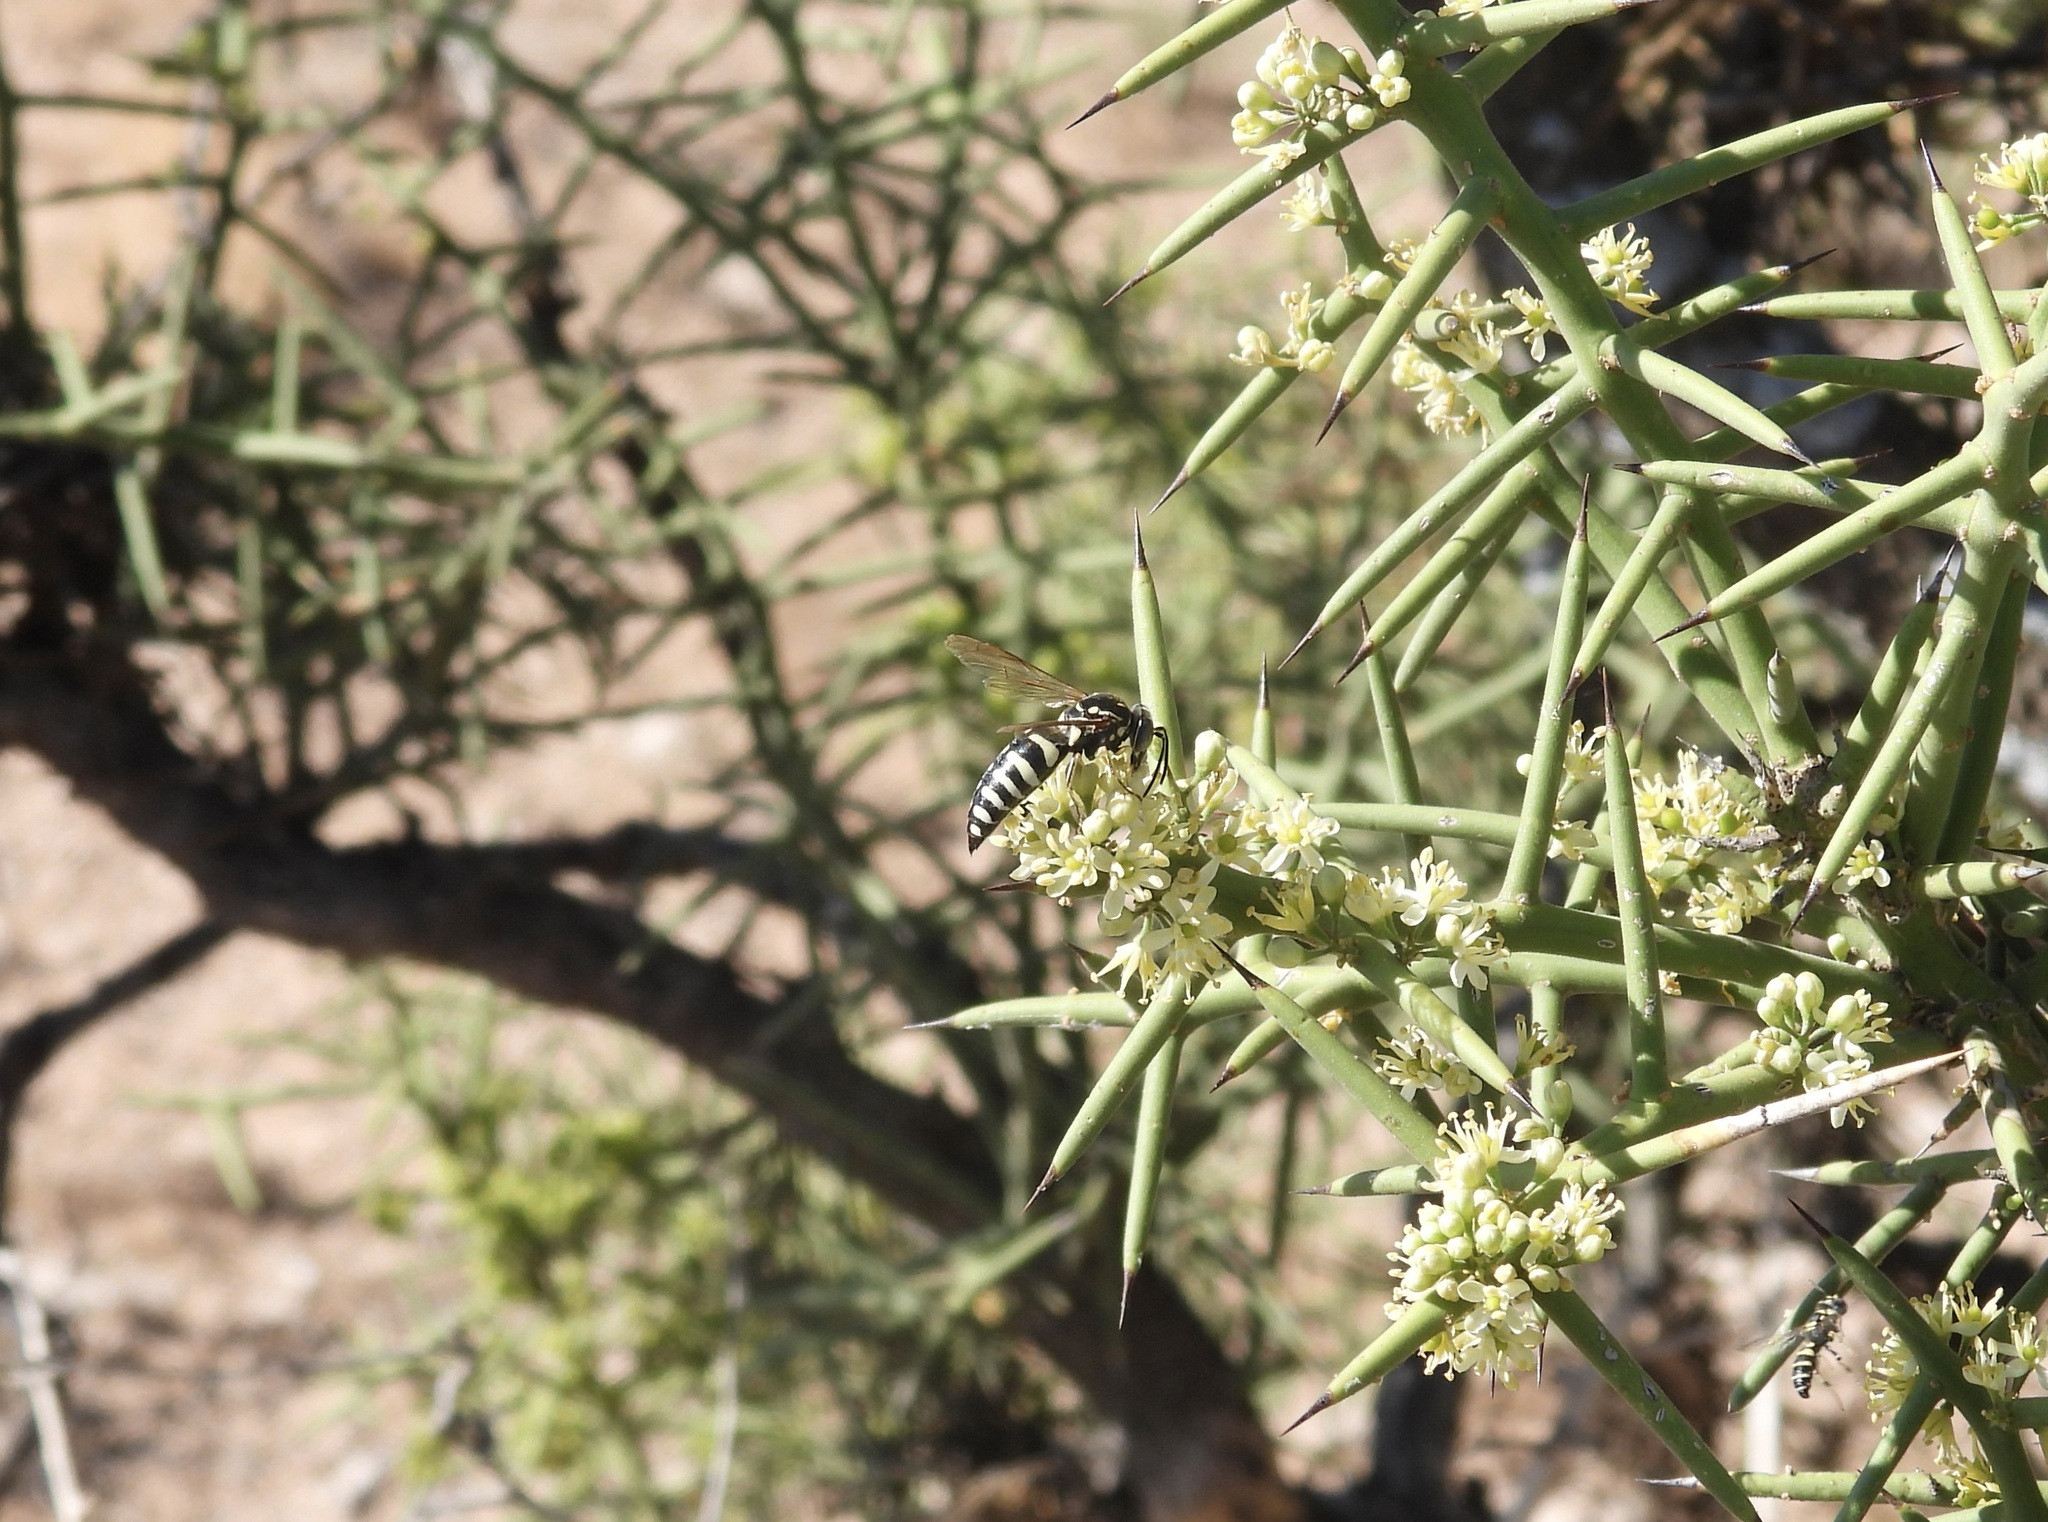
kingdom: Animalia
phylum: Arthropoda
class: Insecta
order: Hymenoptera
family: Crabronidae
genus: Bicyrtes
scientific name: Bicyrtes viduatus
